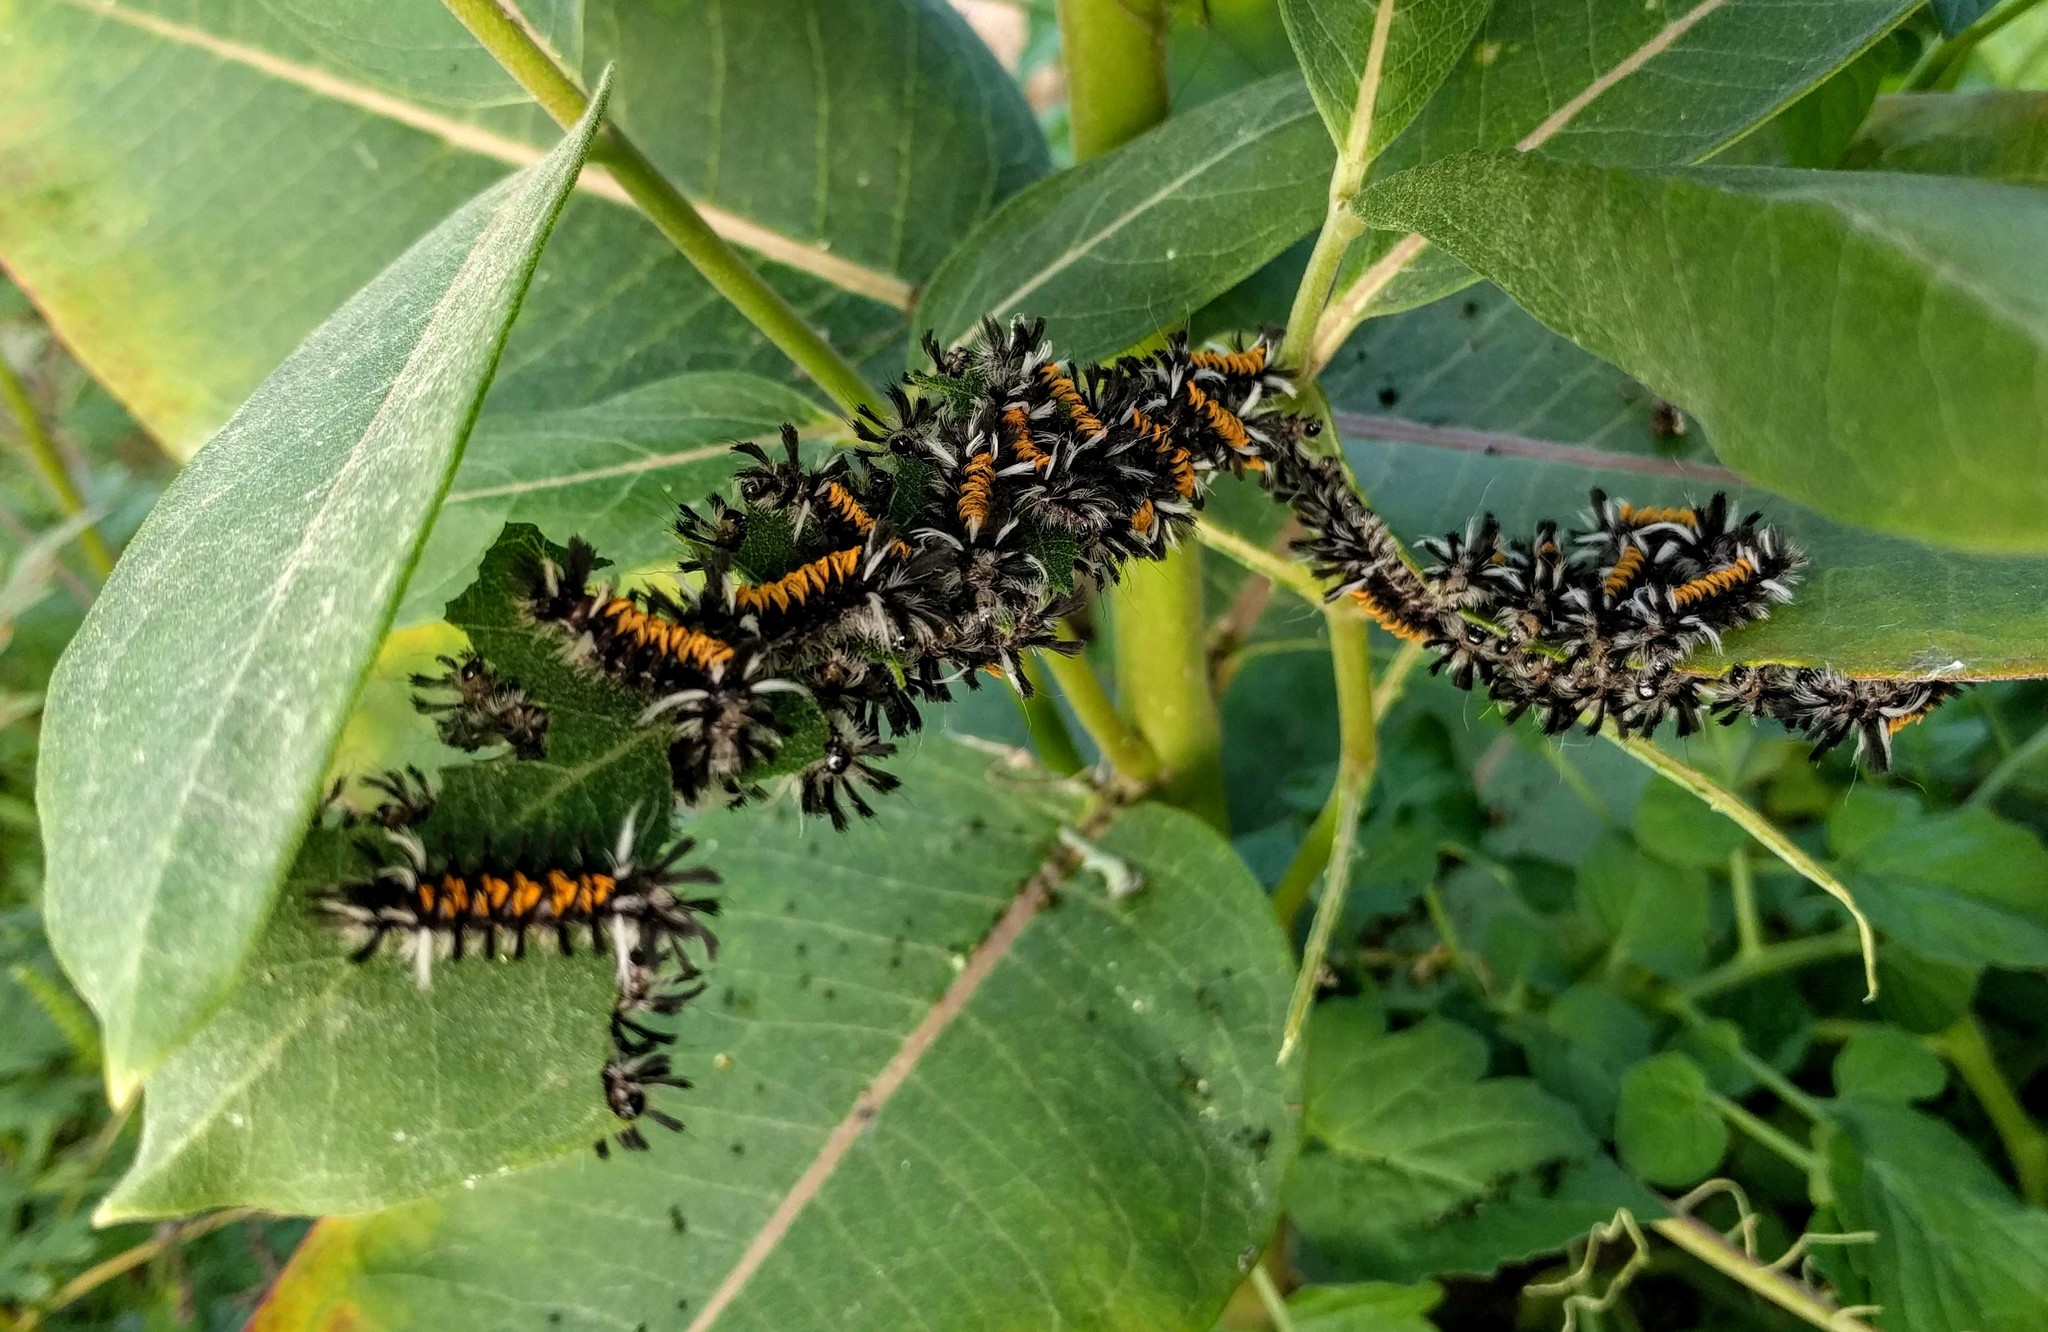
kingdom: Animalia
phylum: Arthropoda
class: Insecta
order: Lepidoptera
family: Erebidae
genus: Euchaetes
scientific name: Euchaetes egle
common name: Milkweed tussock moth
